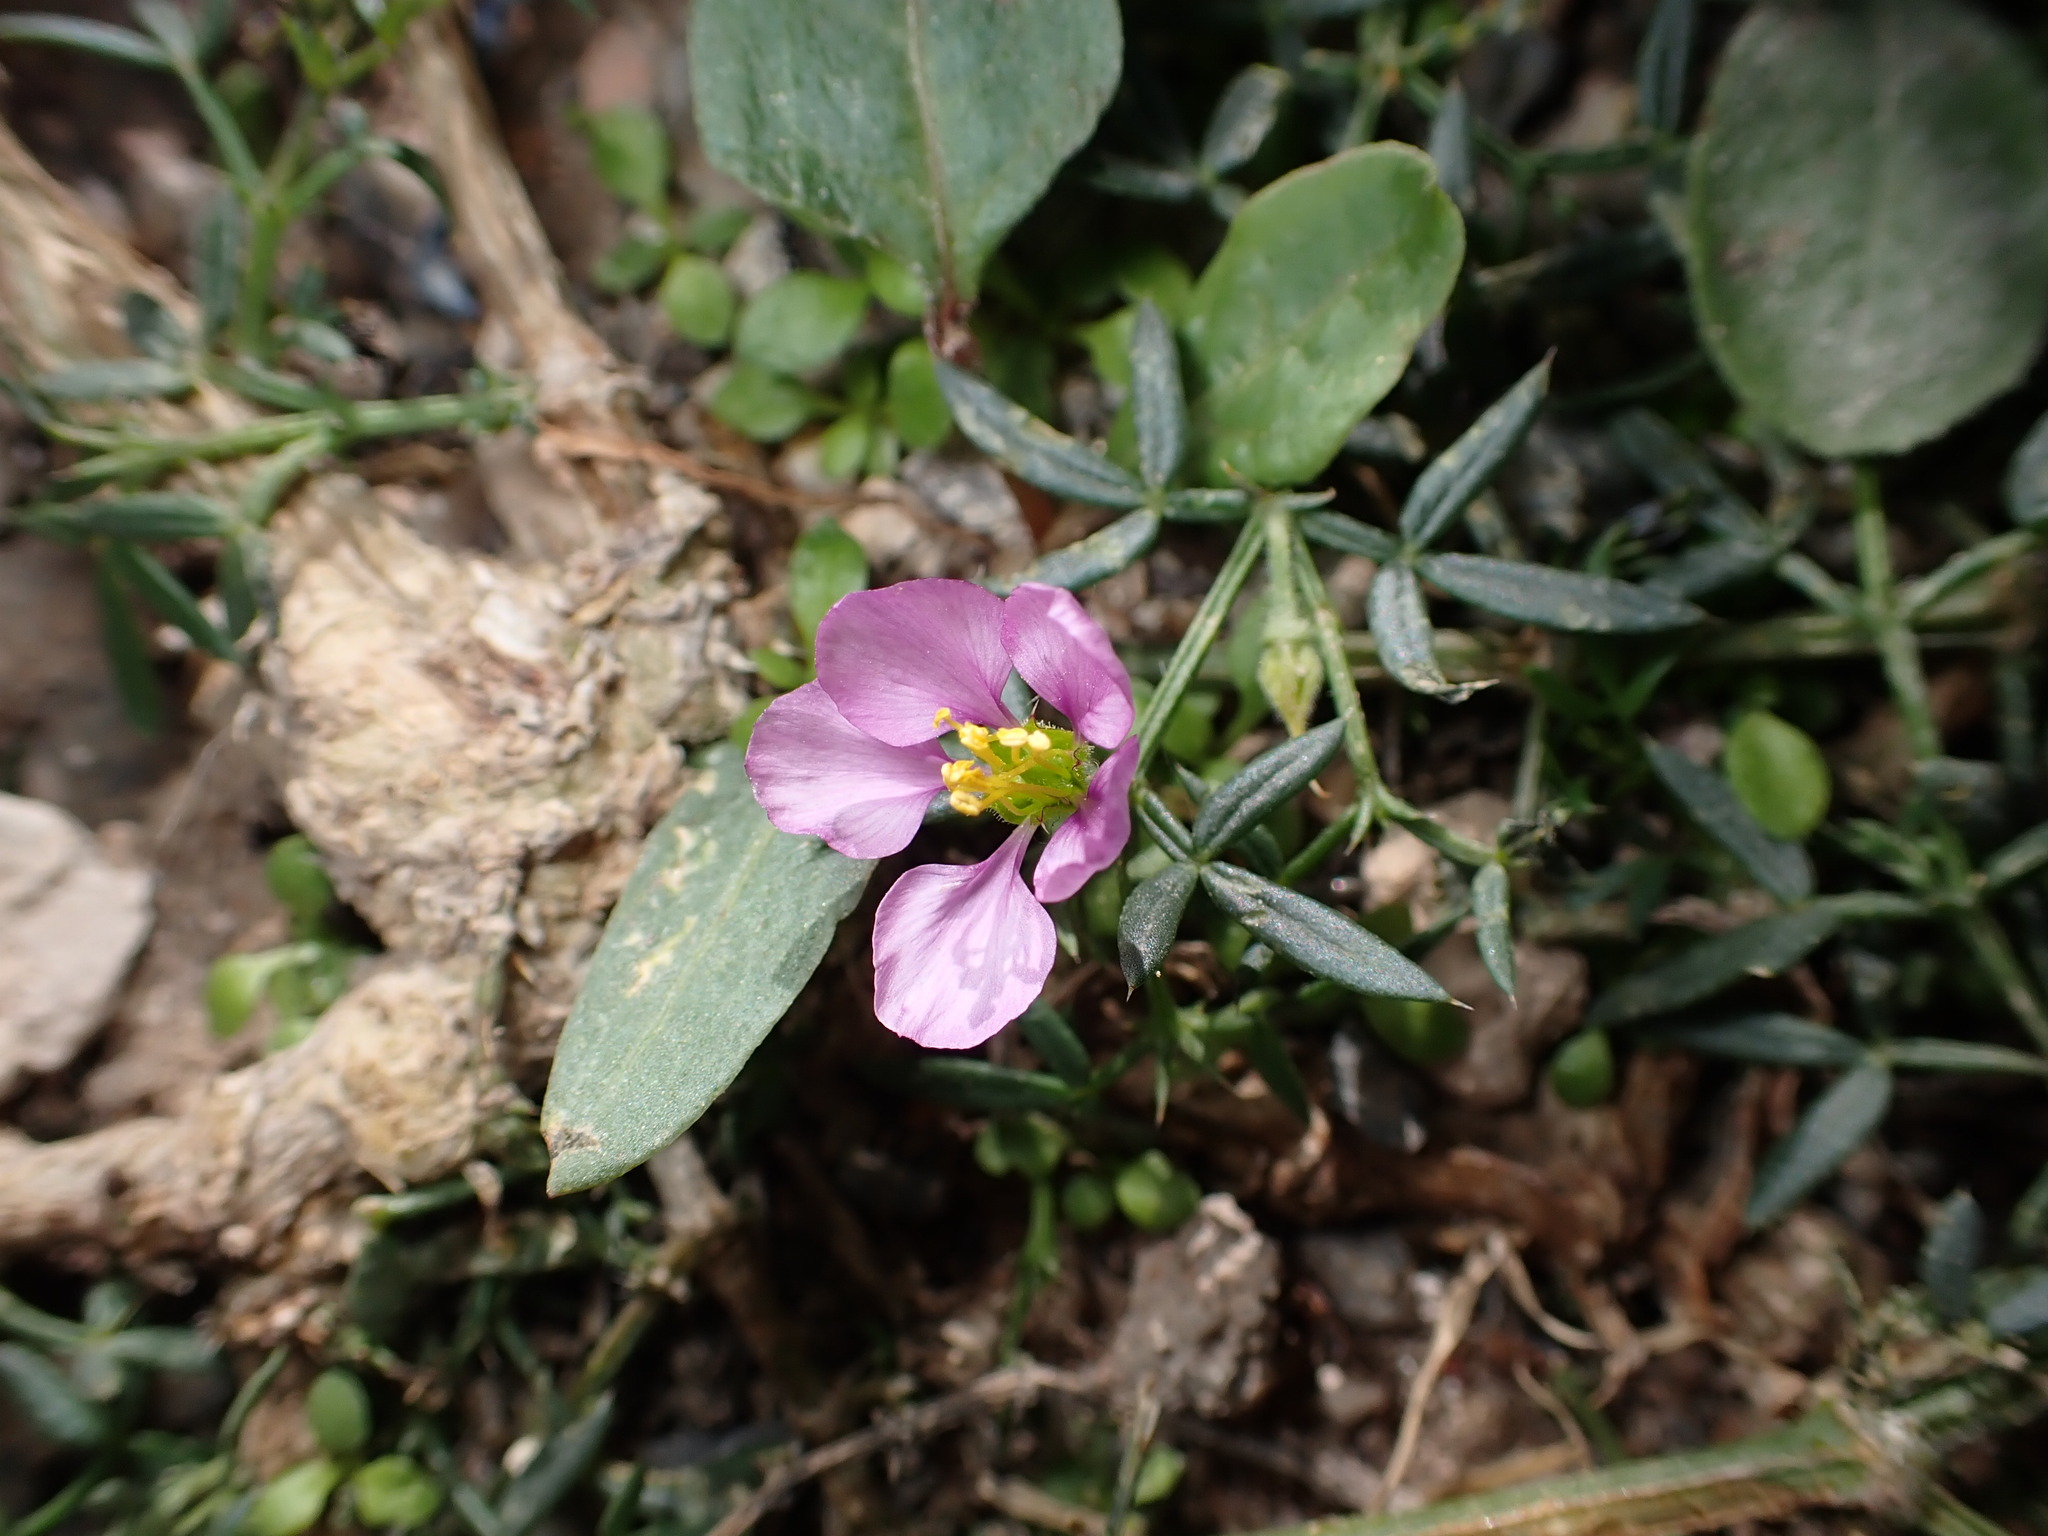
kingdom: Plantae
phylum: Tracheophyta
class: Magnoliopsida
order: Zygophyllales
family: Zygophyllaceae
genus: Fagonia
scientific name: Fagonia cretica
